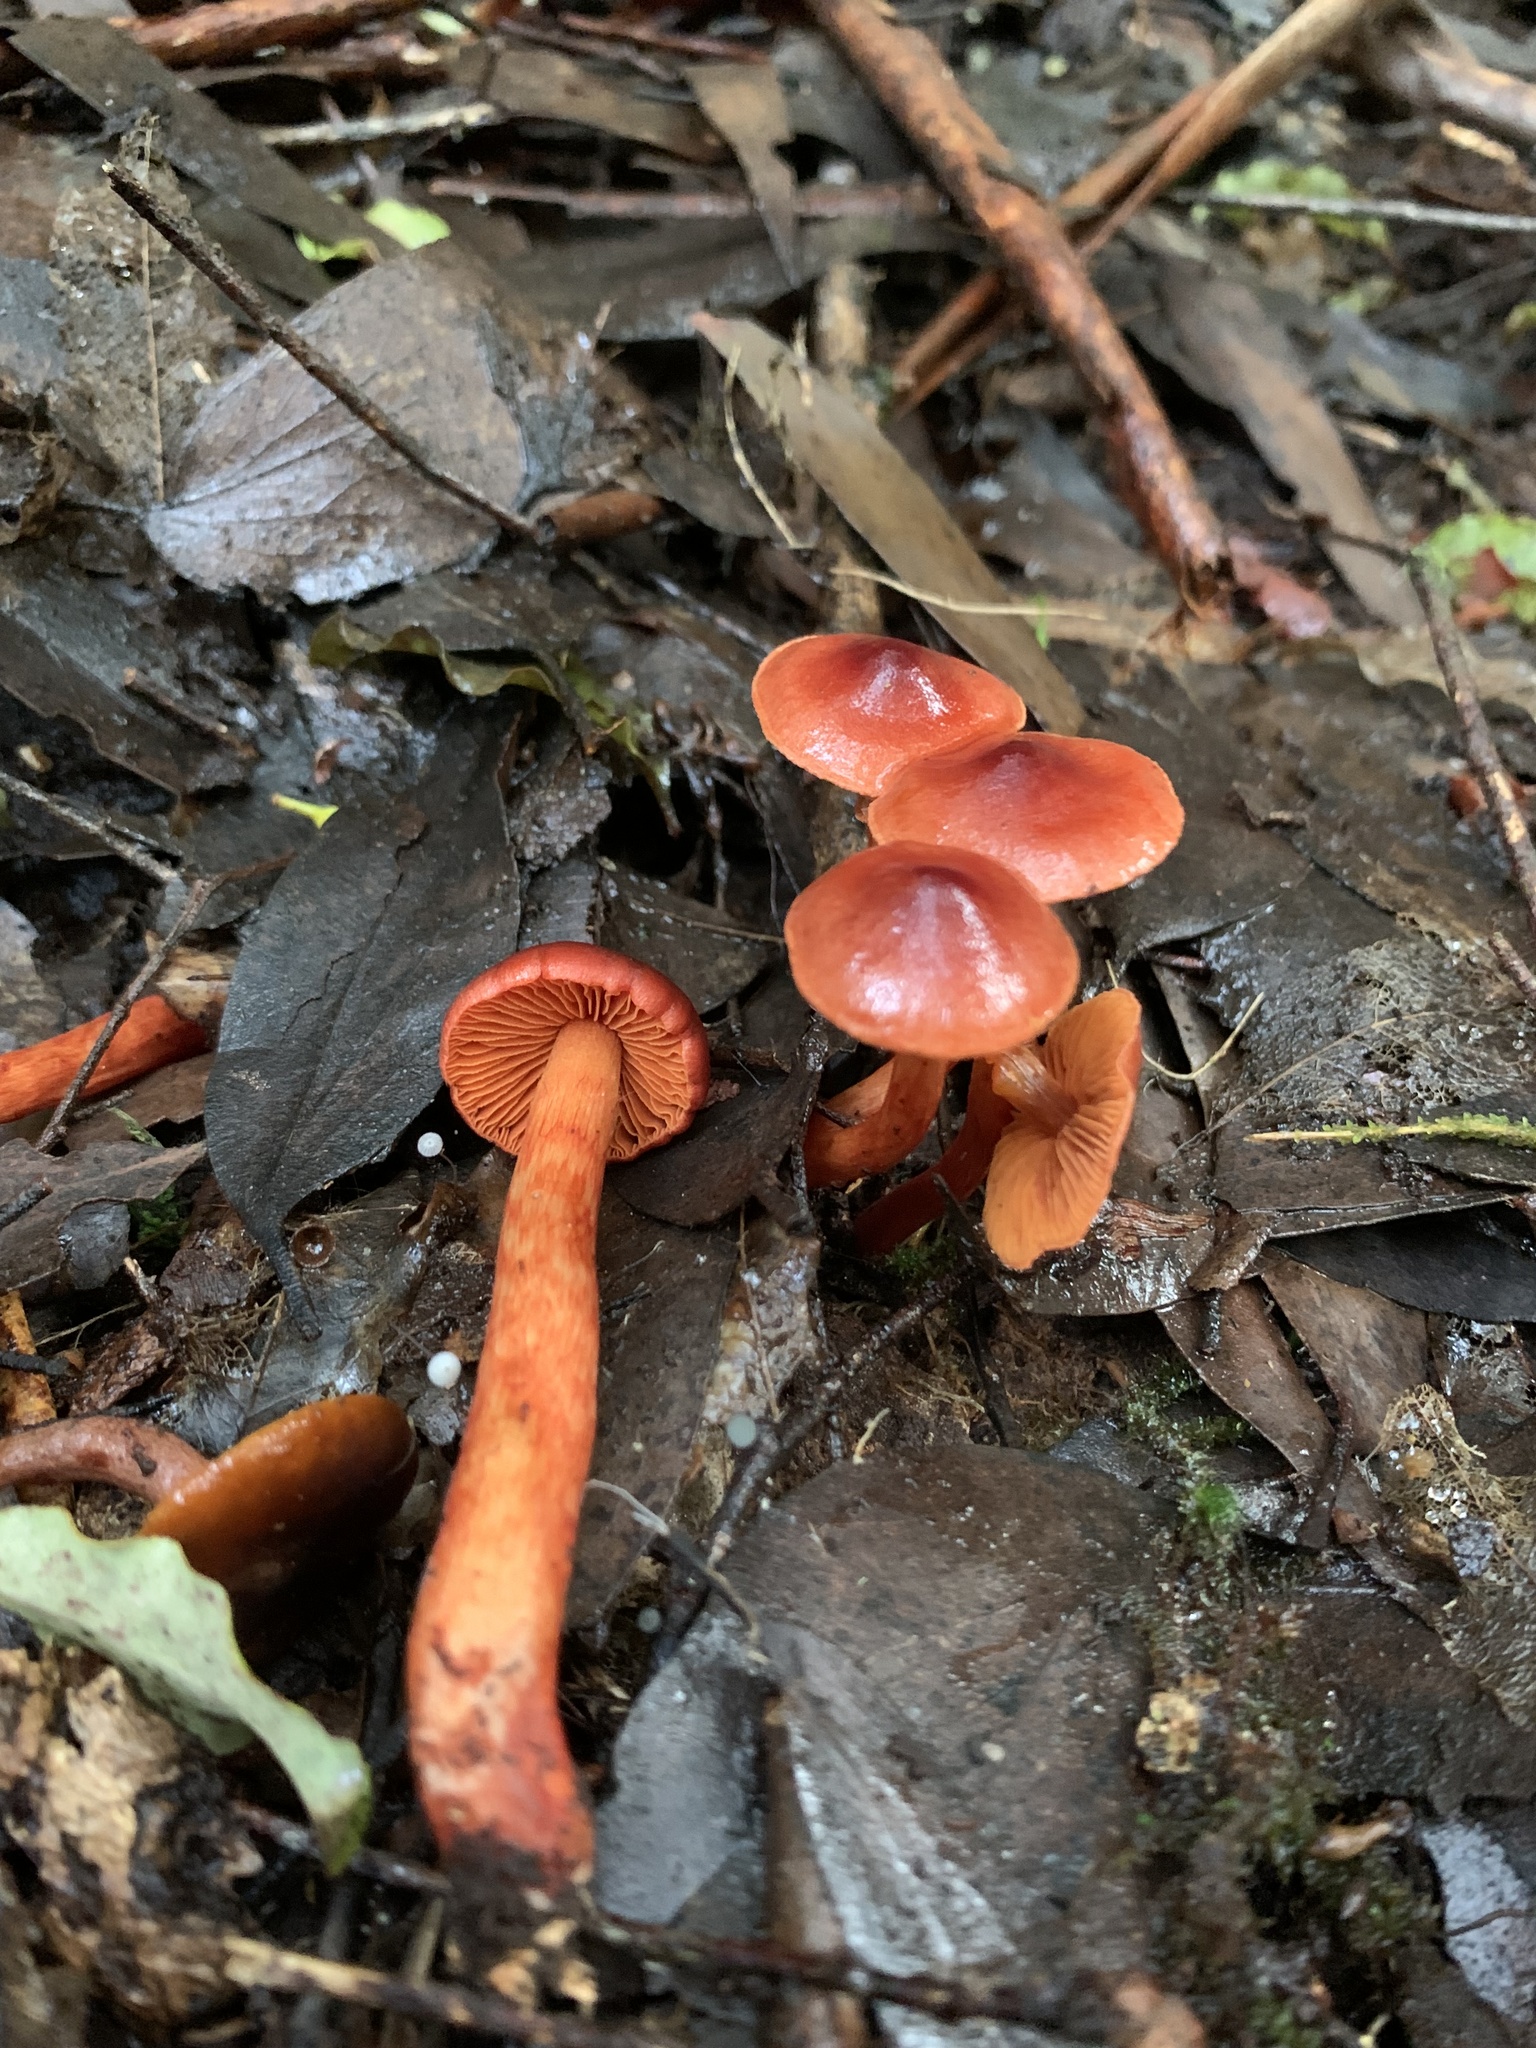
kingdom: Fungi
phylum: Basidiomycota
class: Agaricomycetes
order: Agaricales
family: Cortinariaceae
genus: Cortinarius
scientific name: Cortinarius
